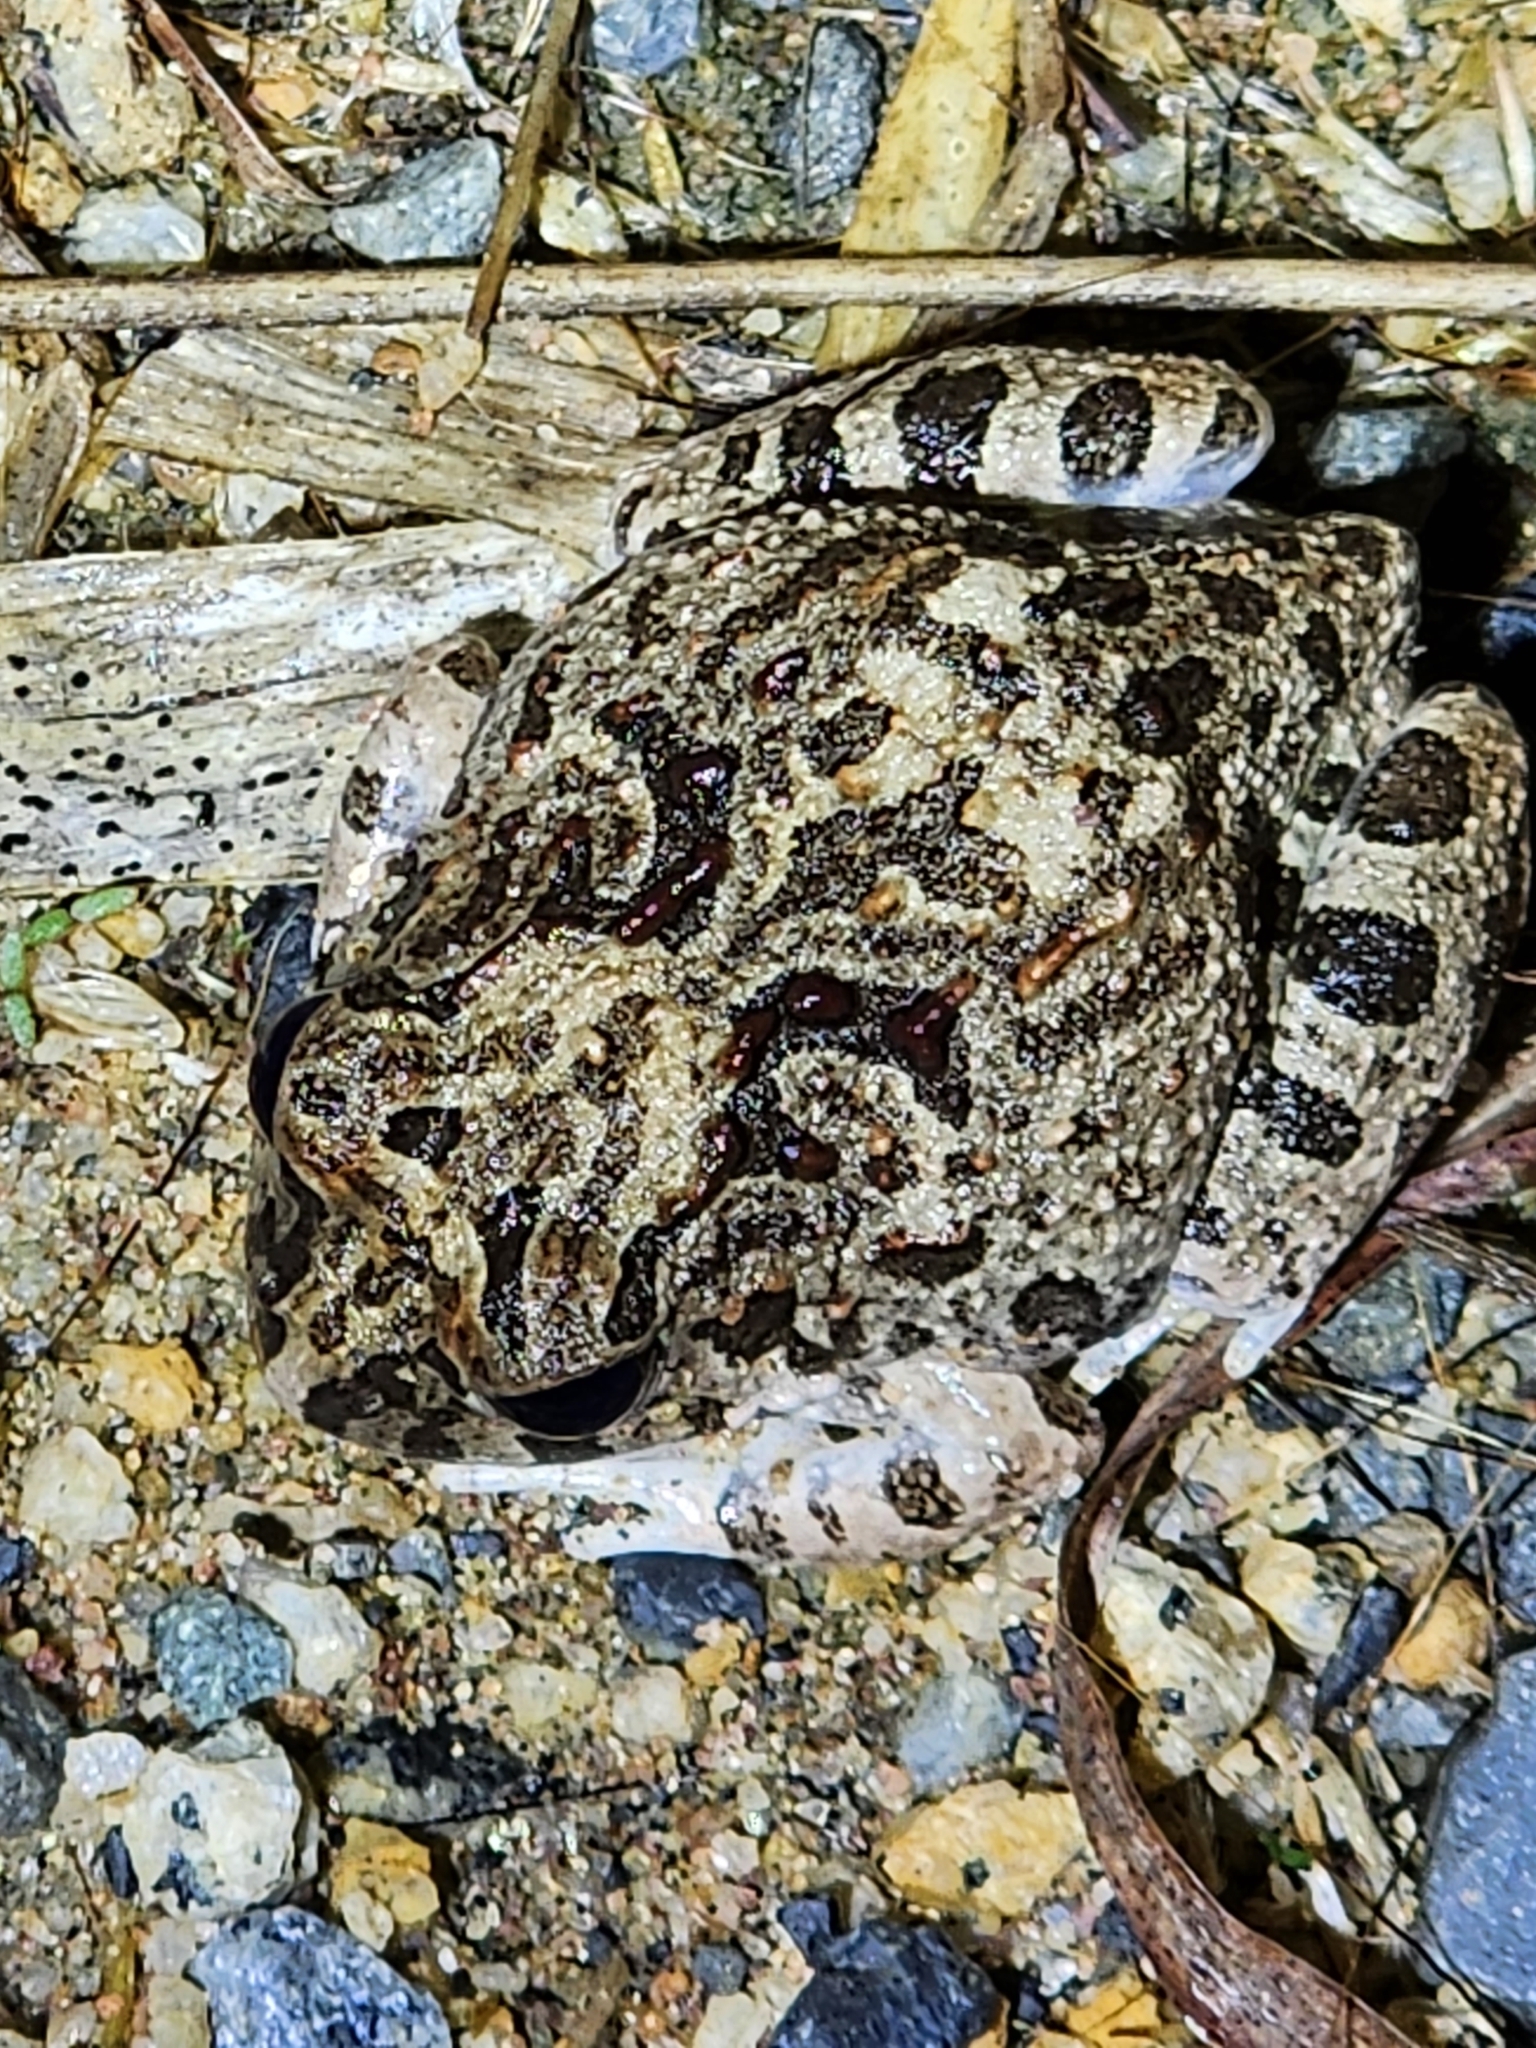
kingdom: Animalia
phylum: Chordata
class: Amphibia
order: Anura
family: Limnodynastidae
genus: Platyplectrum
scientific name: Platyplectrum ornatum
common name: Ornate burrowing frog
